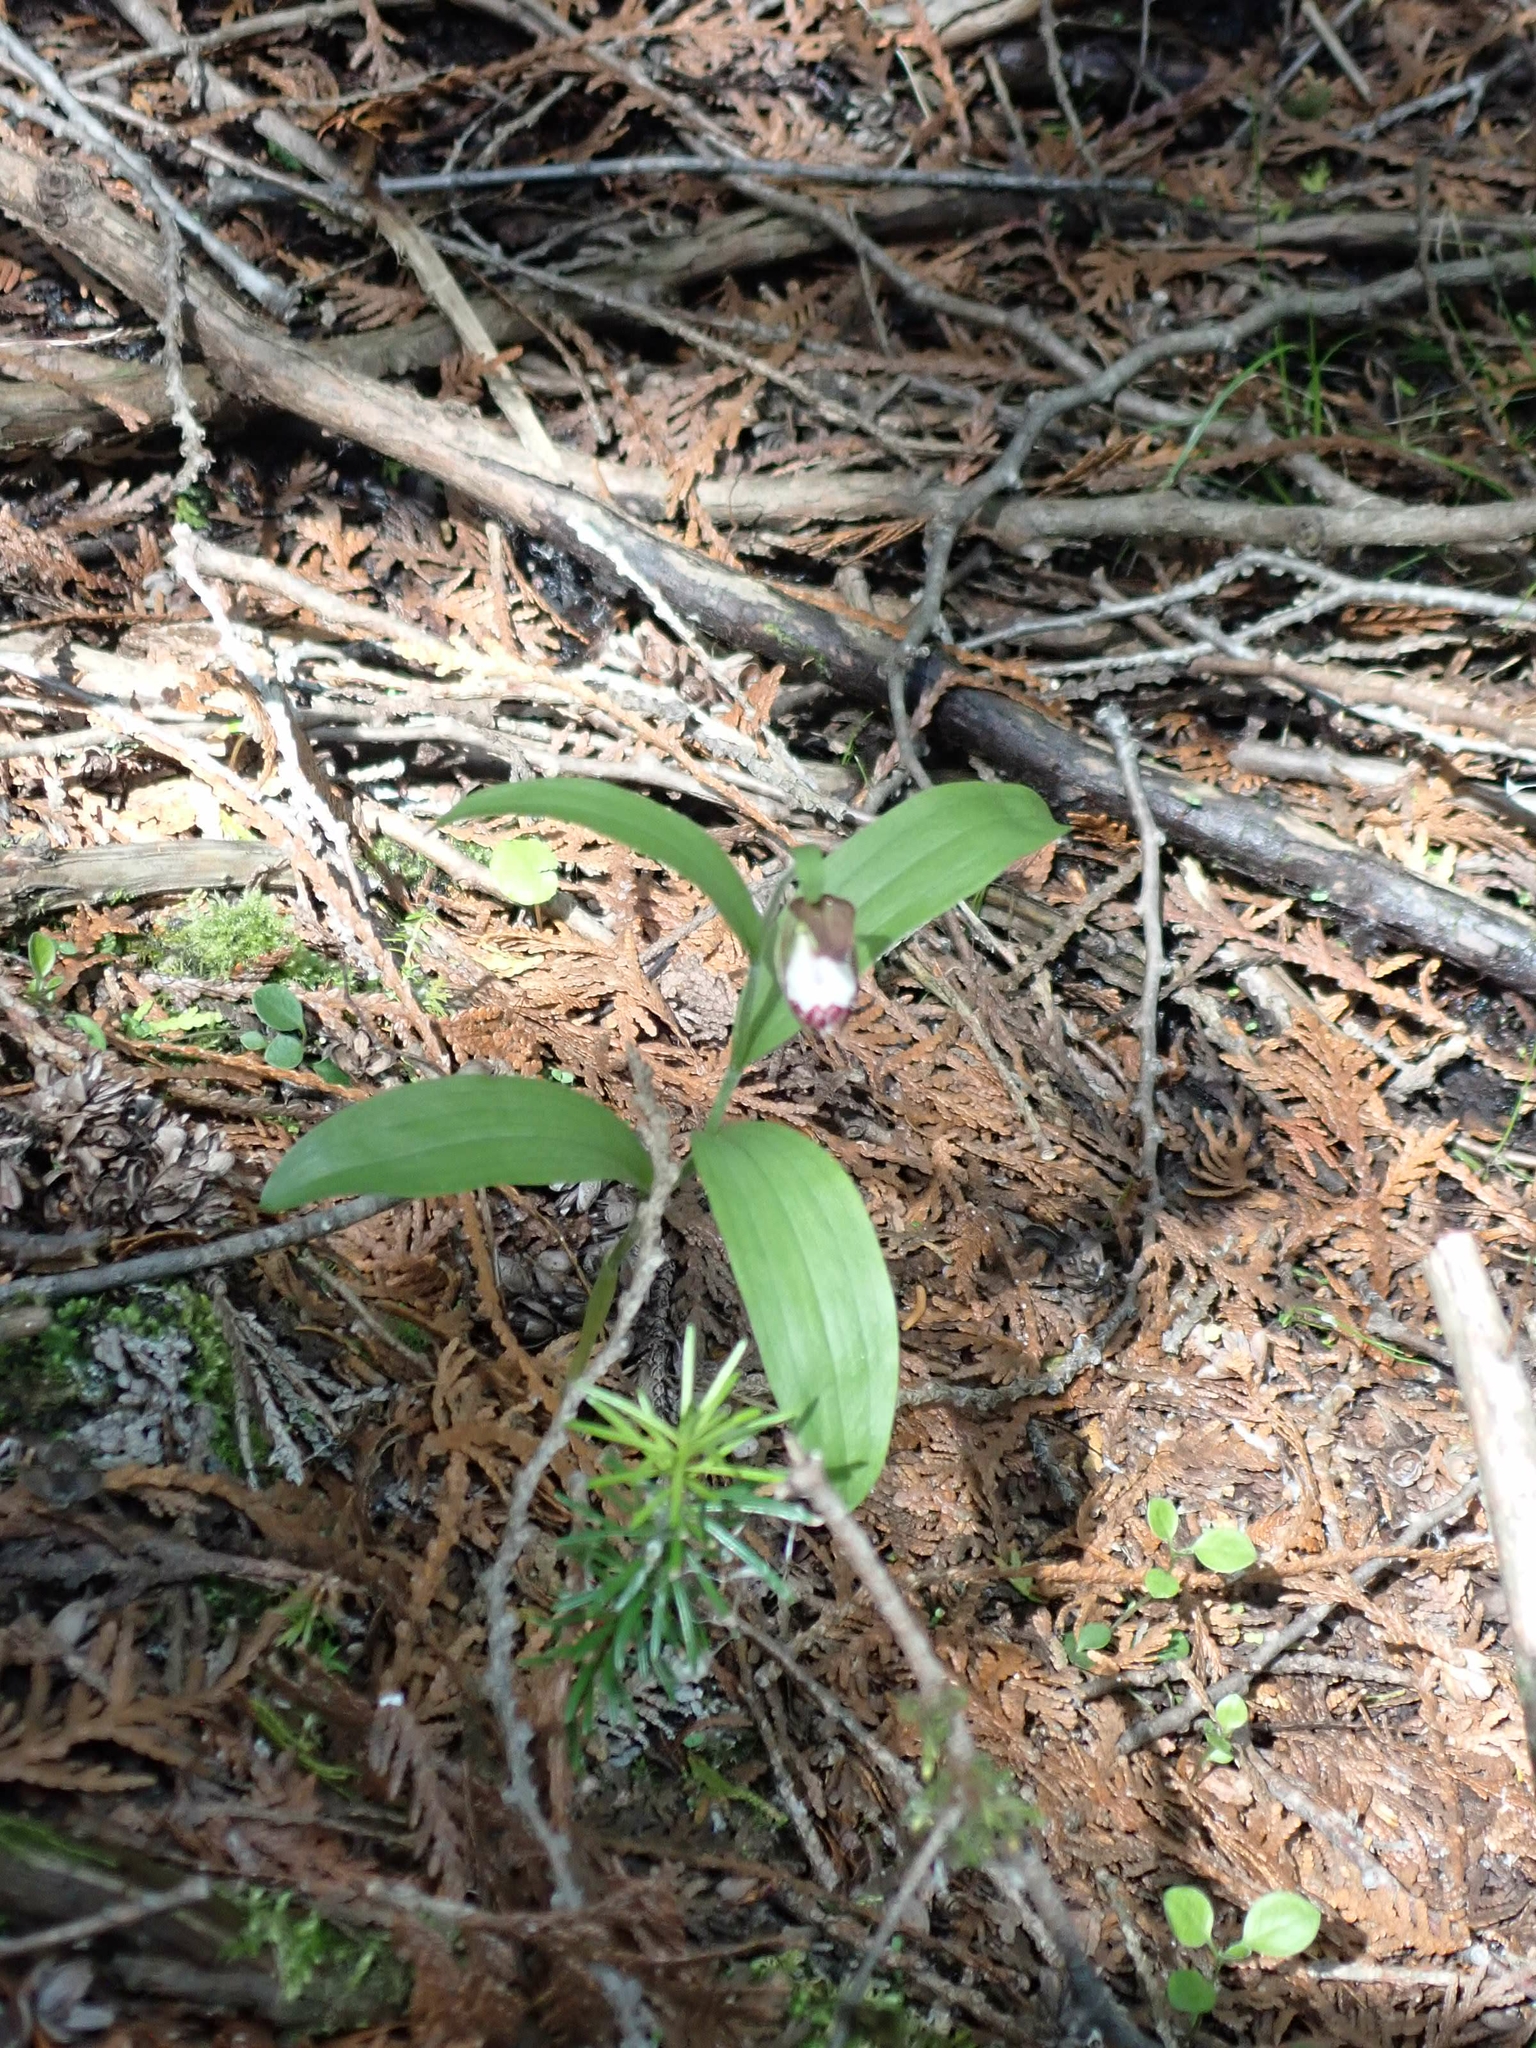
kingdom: Plantae
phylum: Tracheophyta
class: Liliopsida
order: Asparagales
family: Orchidaceae
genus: Cypripedium
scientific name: Cypripedium arietinum
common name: Ram's-head
